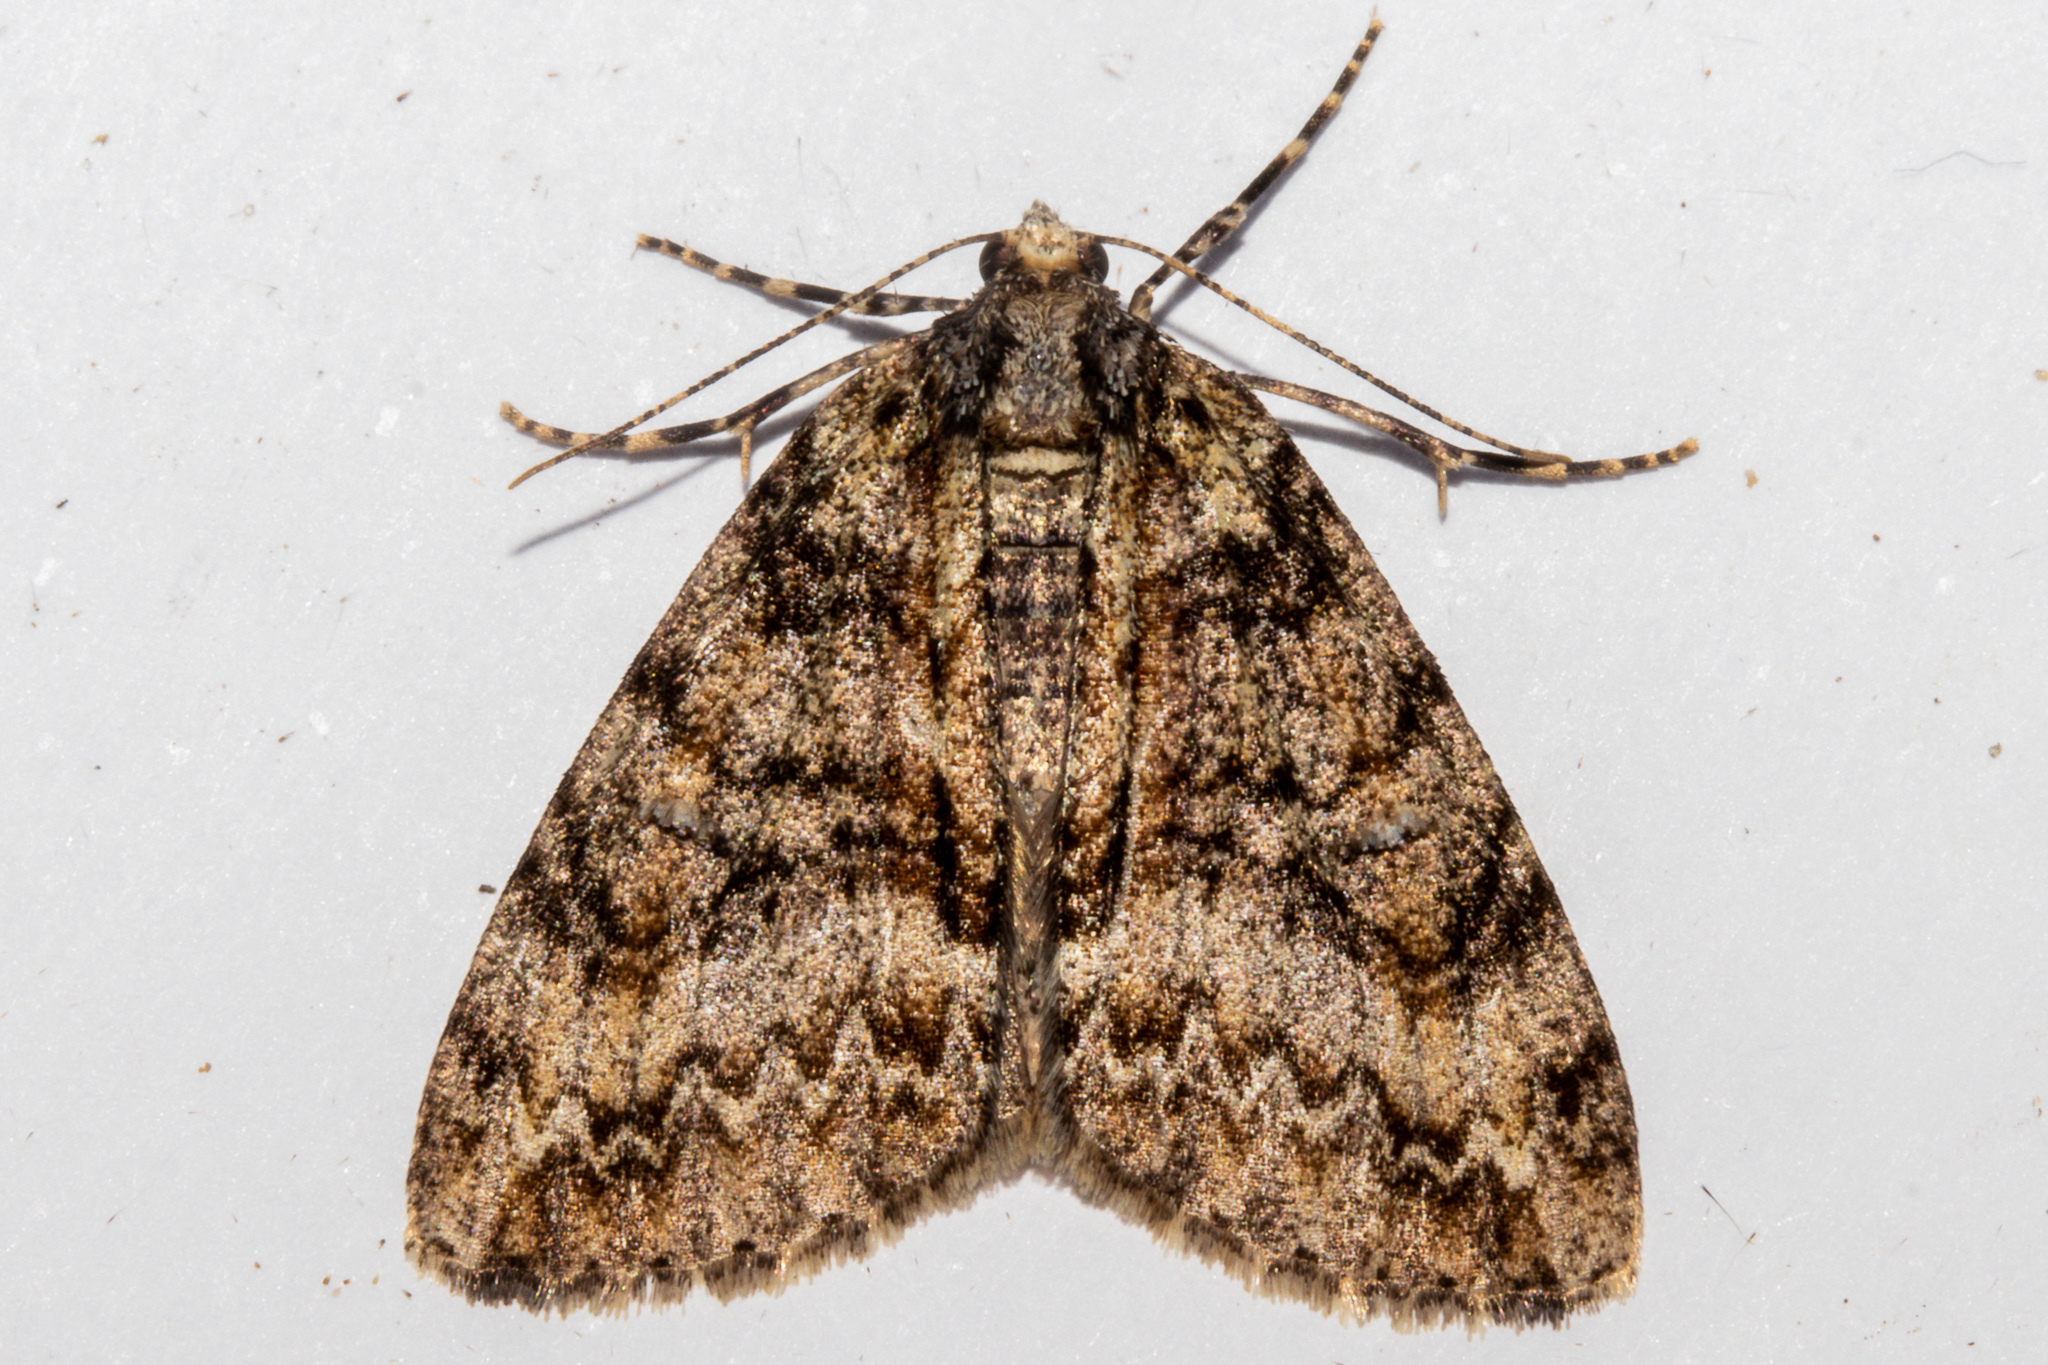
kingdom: Animalia
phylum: Arthropoda
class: Insecta
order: Lepidoptera
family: Geometridae
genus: Pseudocoremia
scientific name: Pseudocoremia suavis
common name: Common forest looper
